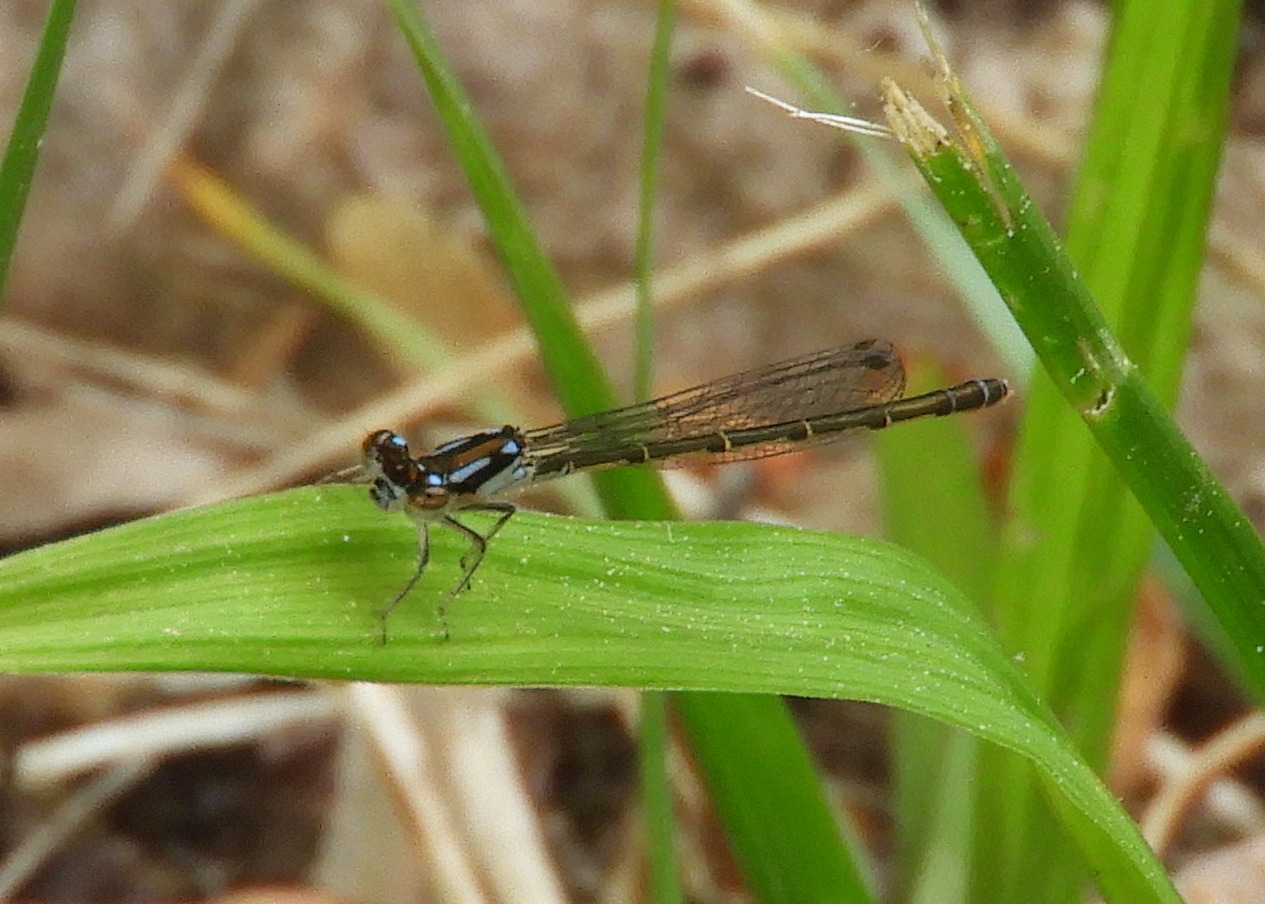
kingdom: Animalia
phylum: Arthropoda
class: Insecta
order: Odonata
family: Coenagrionidae
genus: Ischnura
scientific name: Ischnura posita
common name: Fragile forktail
